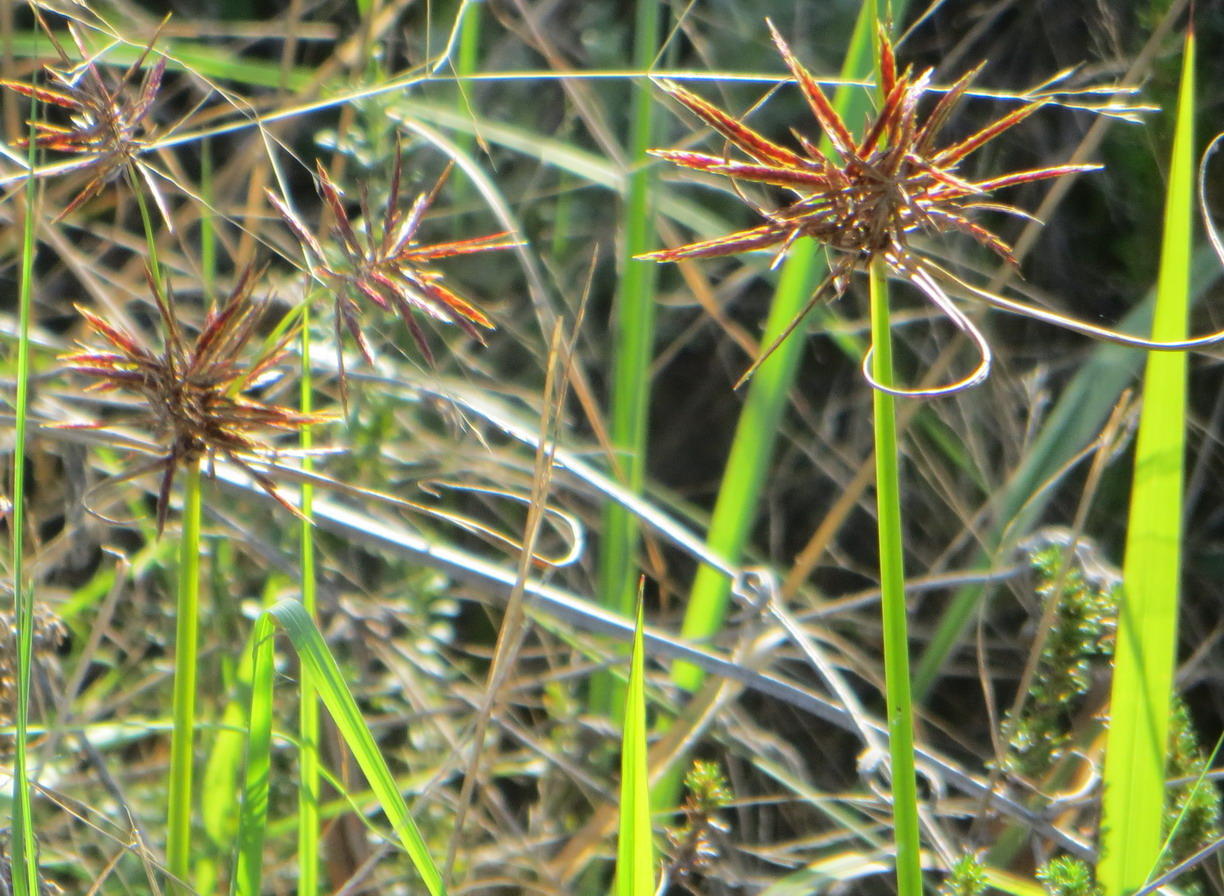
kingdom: Plantae
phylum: Tracheophyta
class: Liliopsida
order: Poales
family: Cyperaceae
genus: Cyperus
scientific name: Cyperus congestus
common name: Dense flat sedge
